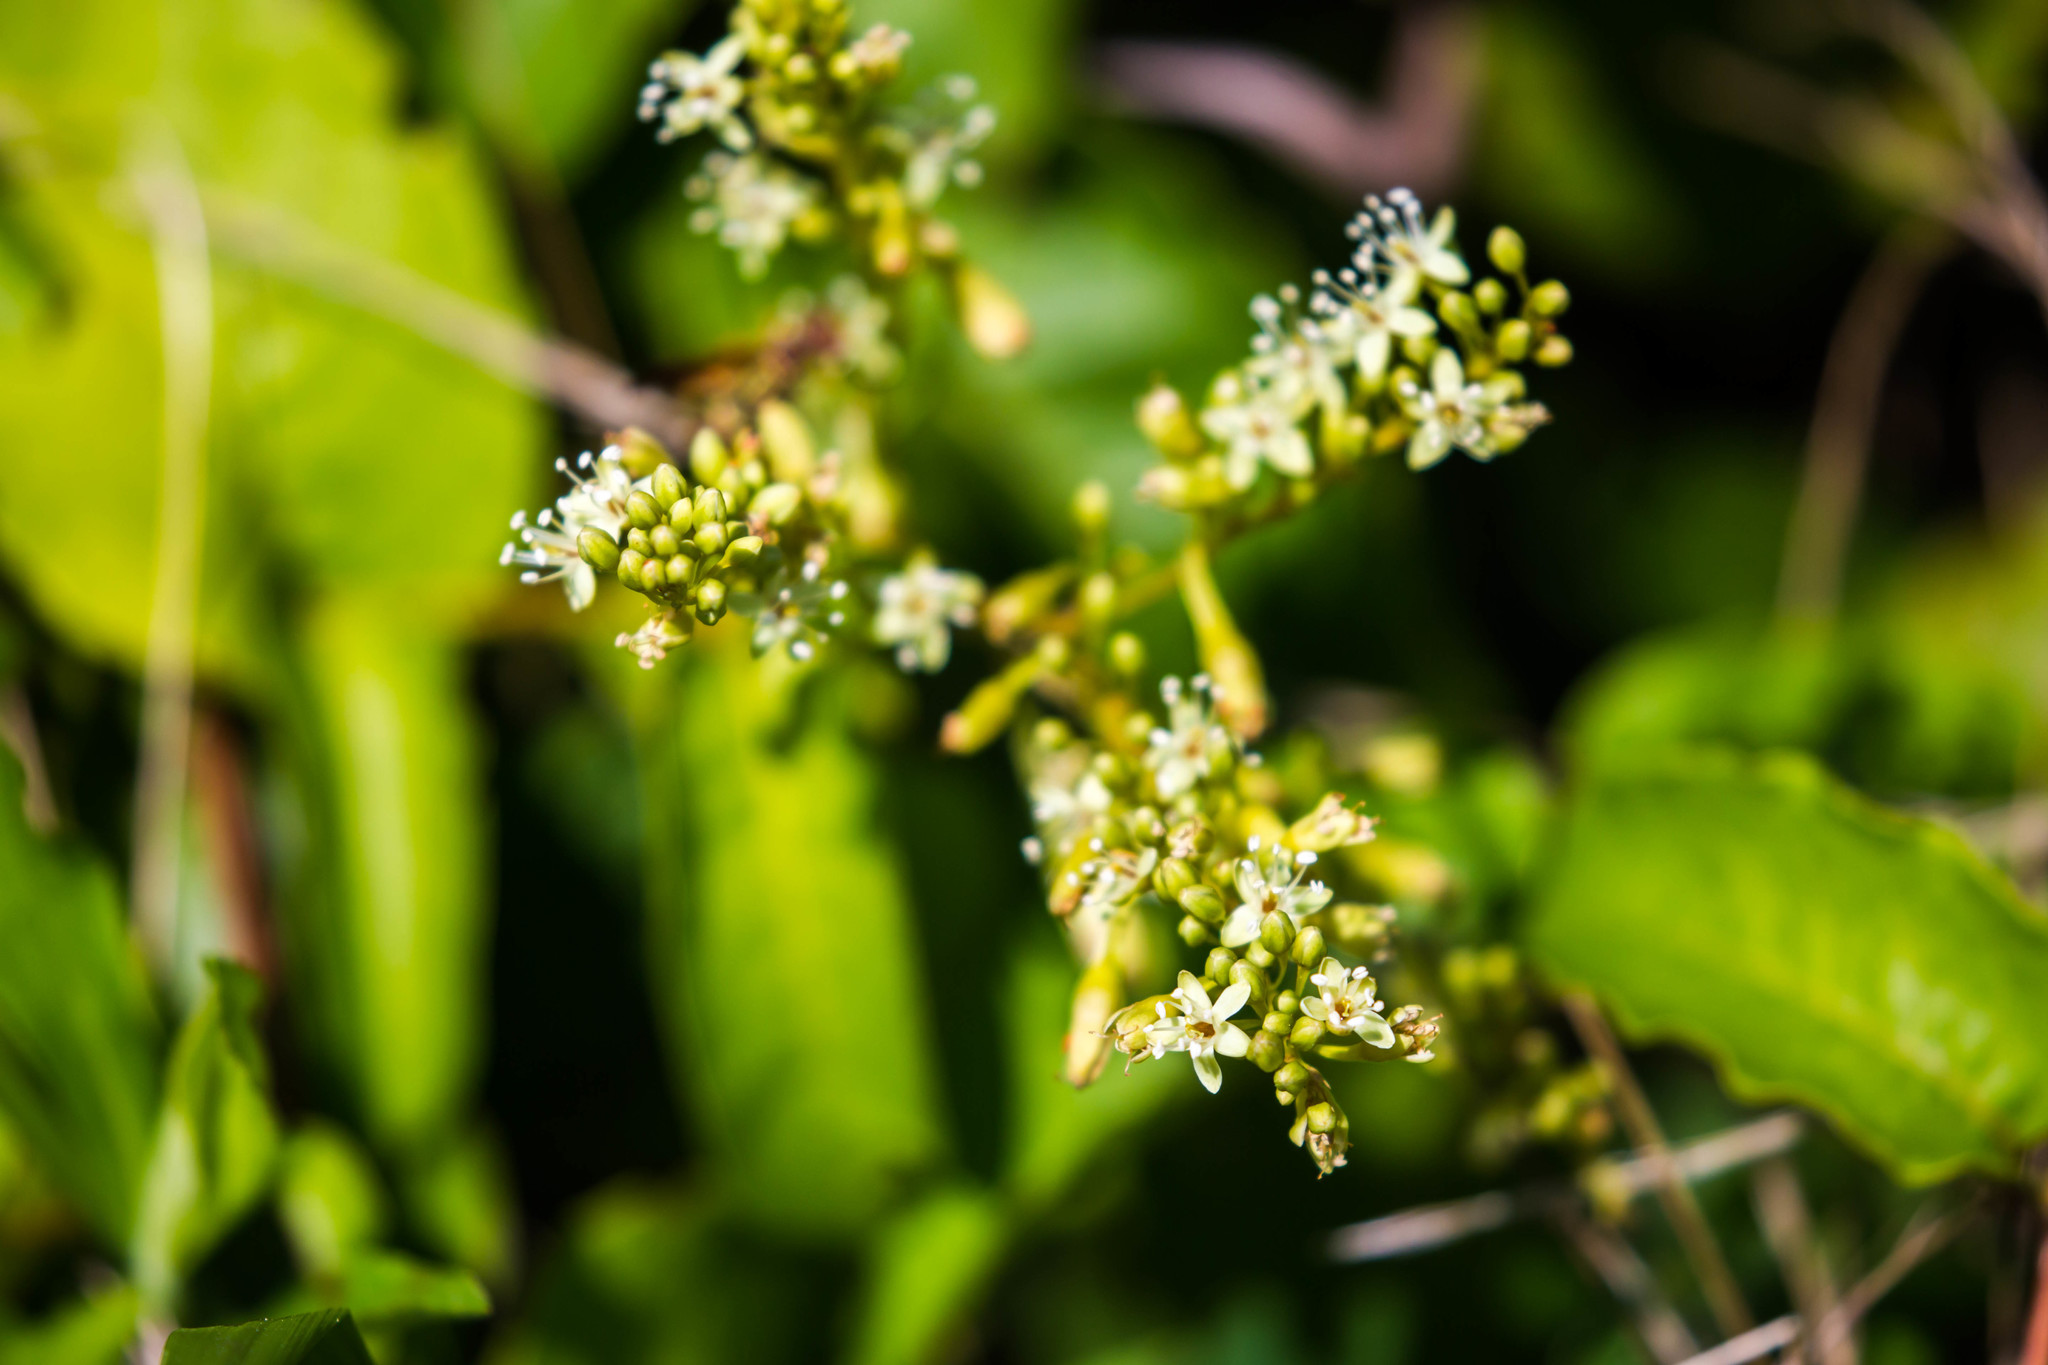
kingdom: Plantae
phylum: Tracheophyta
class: Magnoliopsida
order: Caryophyllales
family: Polygonaceae
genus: Brunnichia
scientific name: Brunnichia ovata
